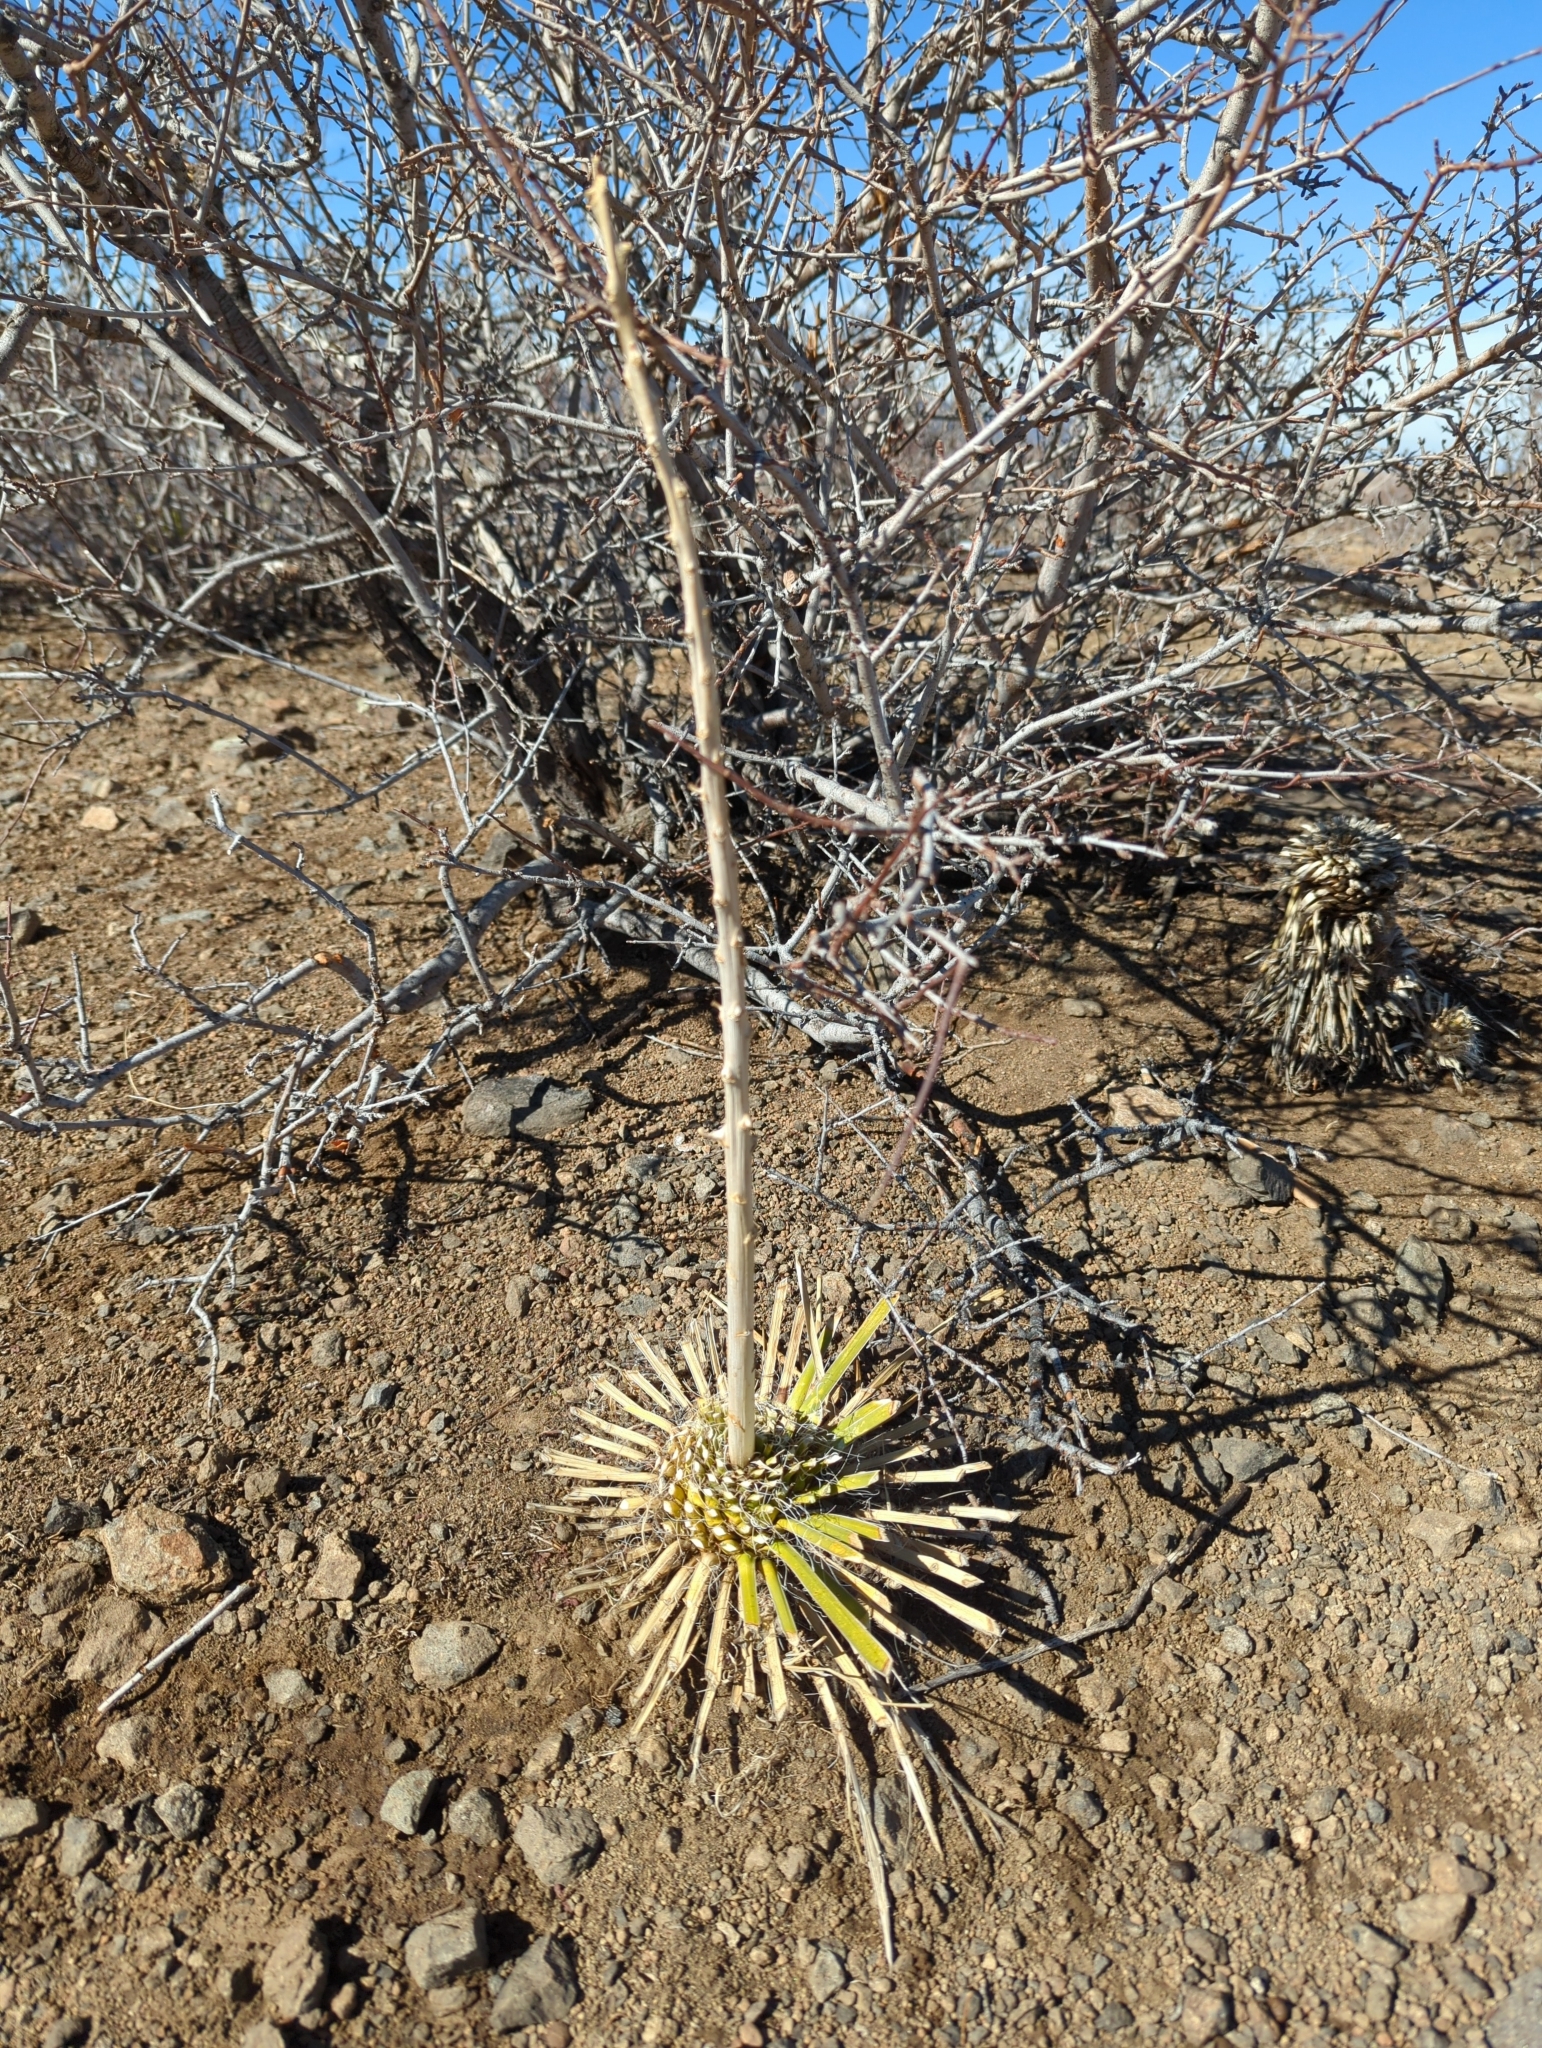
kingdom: Plantae
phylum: Tracheophyta
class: Liliopsida
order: Asparagales
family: Asparagaceae
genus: Yucca
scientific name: Yucca glauca
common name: Great plains yucca
